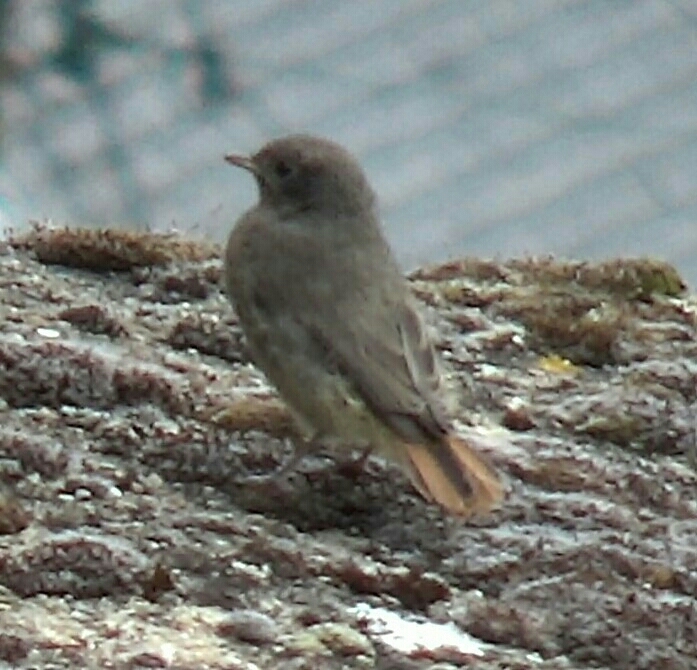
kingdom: Animalia
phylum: Chordata
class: Aves
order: Passeriformes
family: Muscicapidae
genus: Phoenicurus
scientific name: Phoenicurus ochruros
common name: Black redstart
